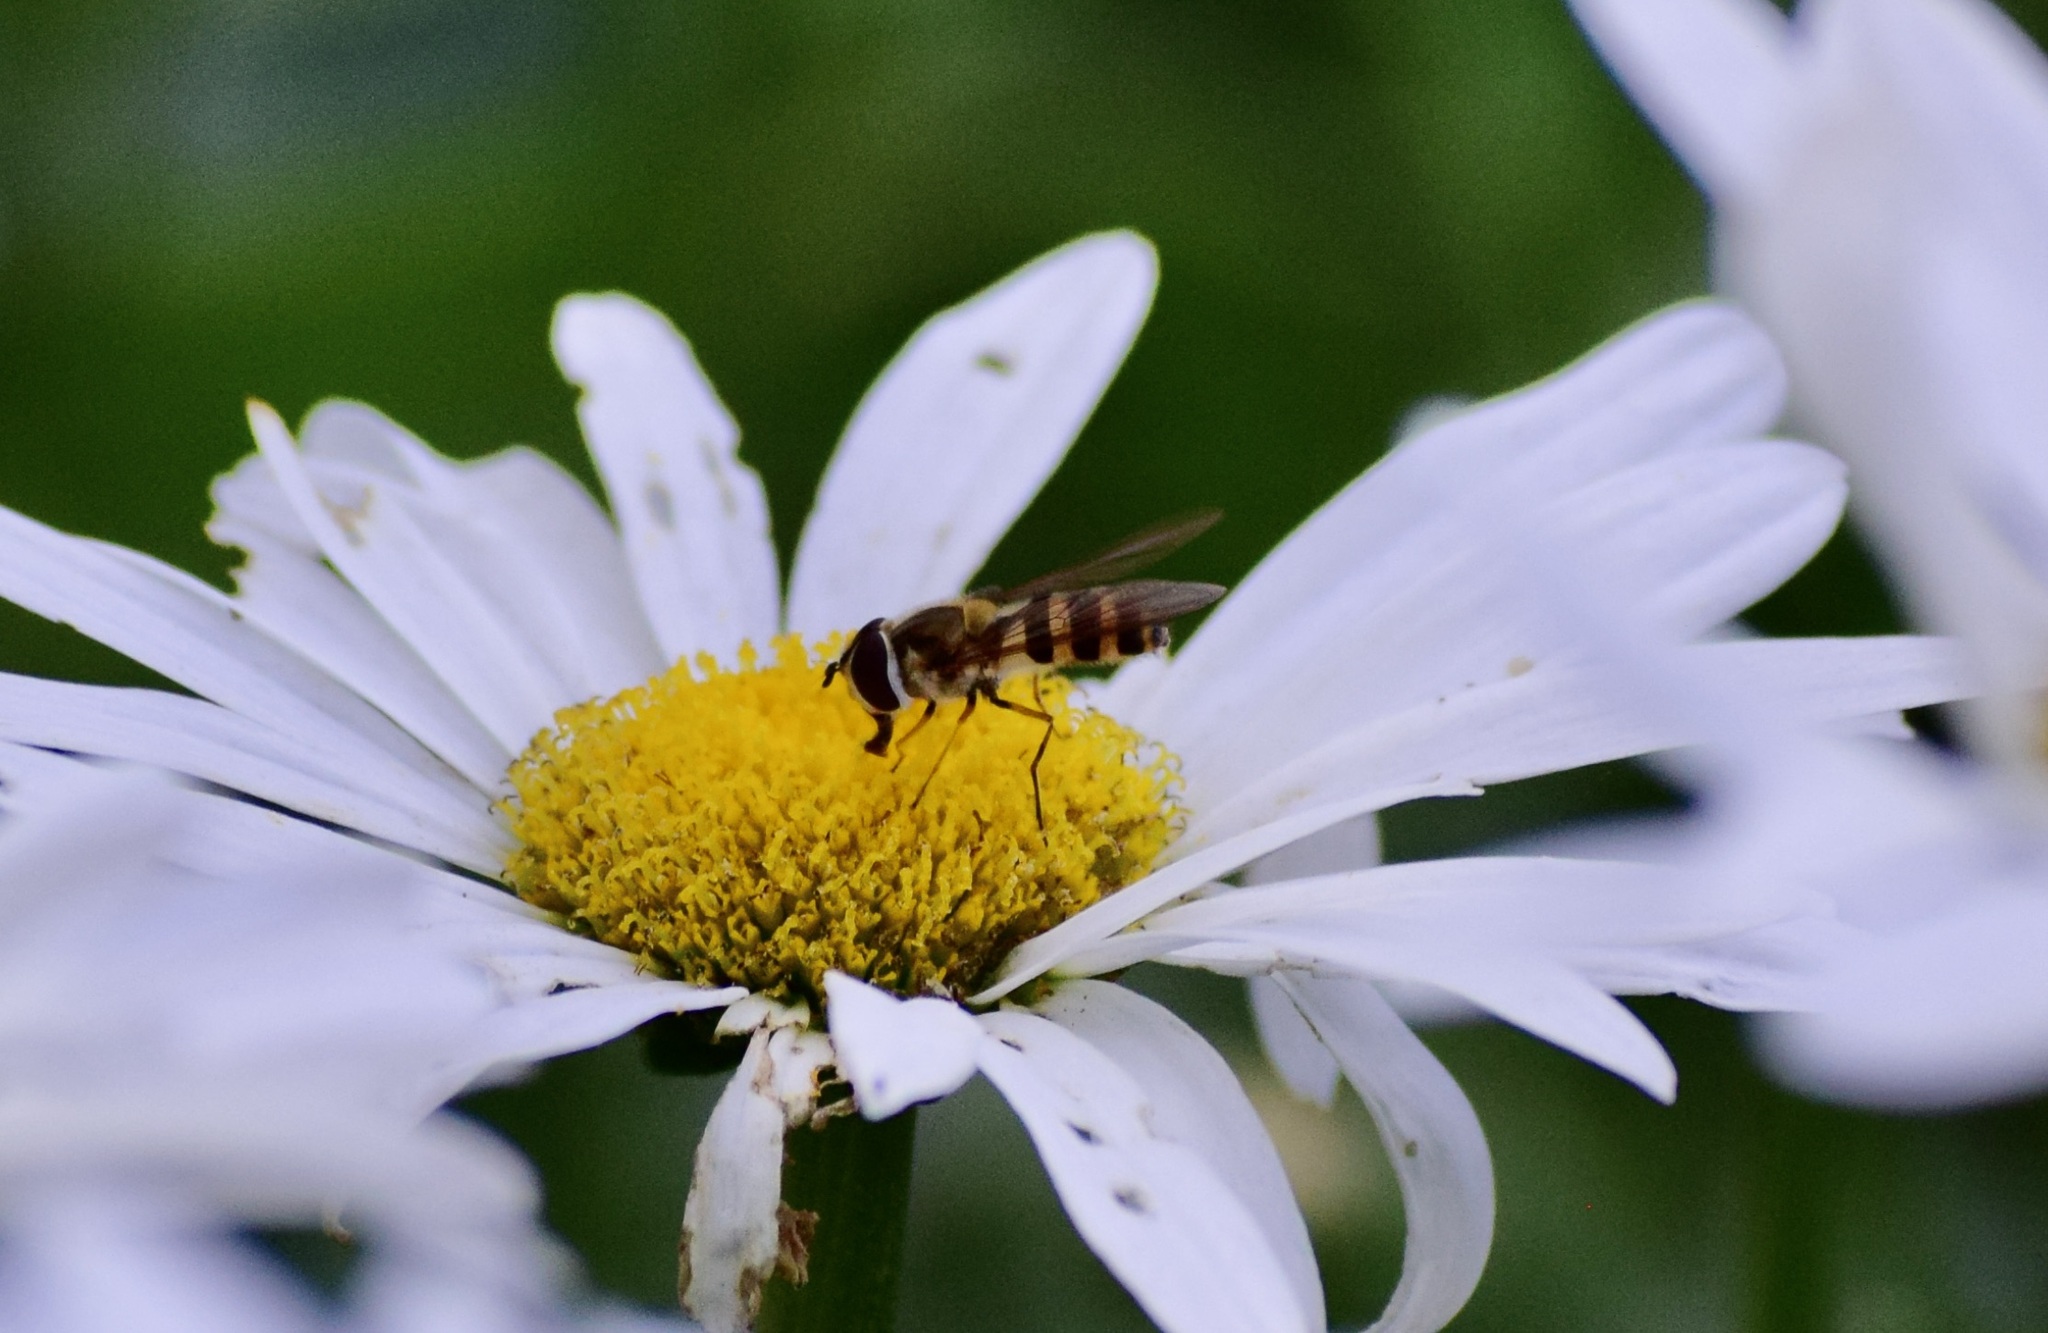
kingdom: Animalia
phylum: Arthropoda
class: Insecta
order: Diptera
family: Syrphidae
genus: Epistrophe
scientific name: Epistrophe grossulariae
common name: Black-horned smoothtail
